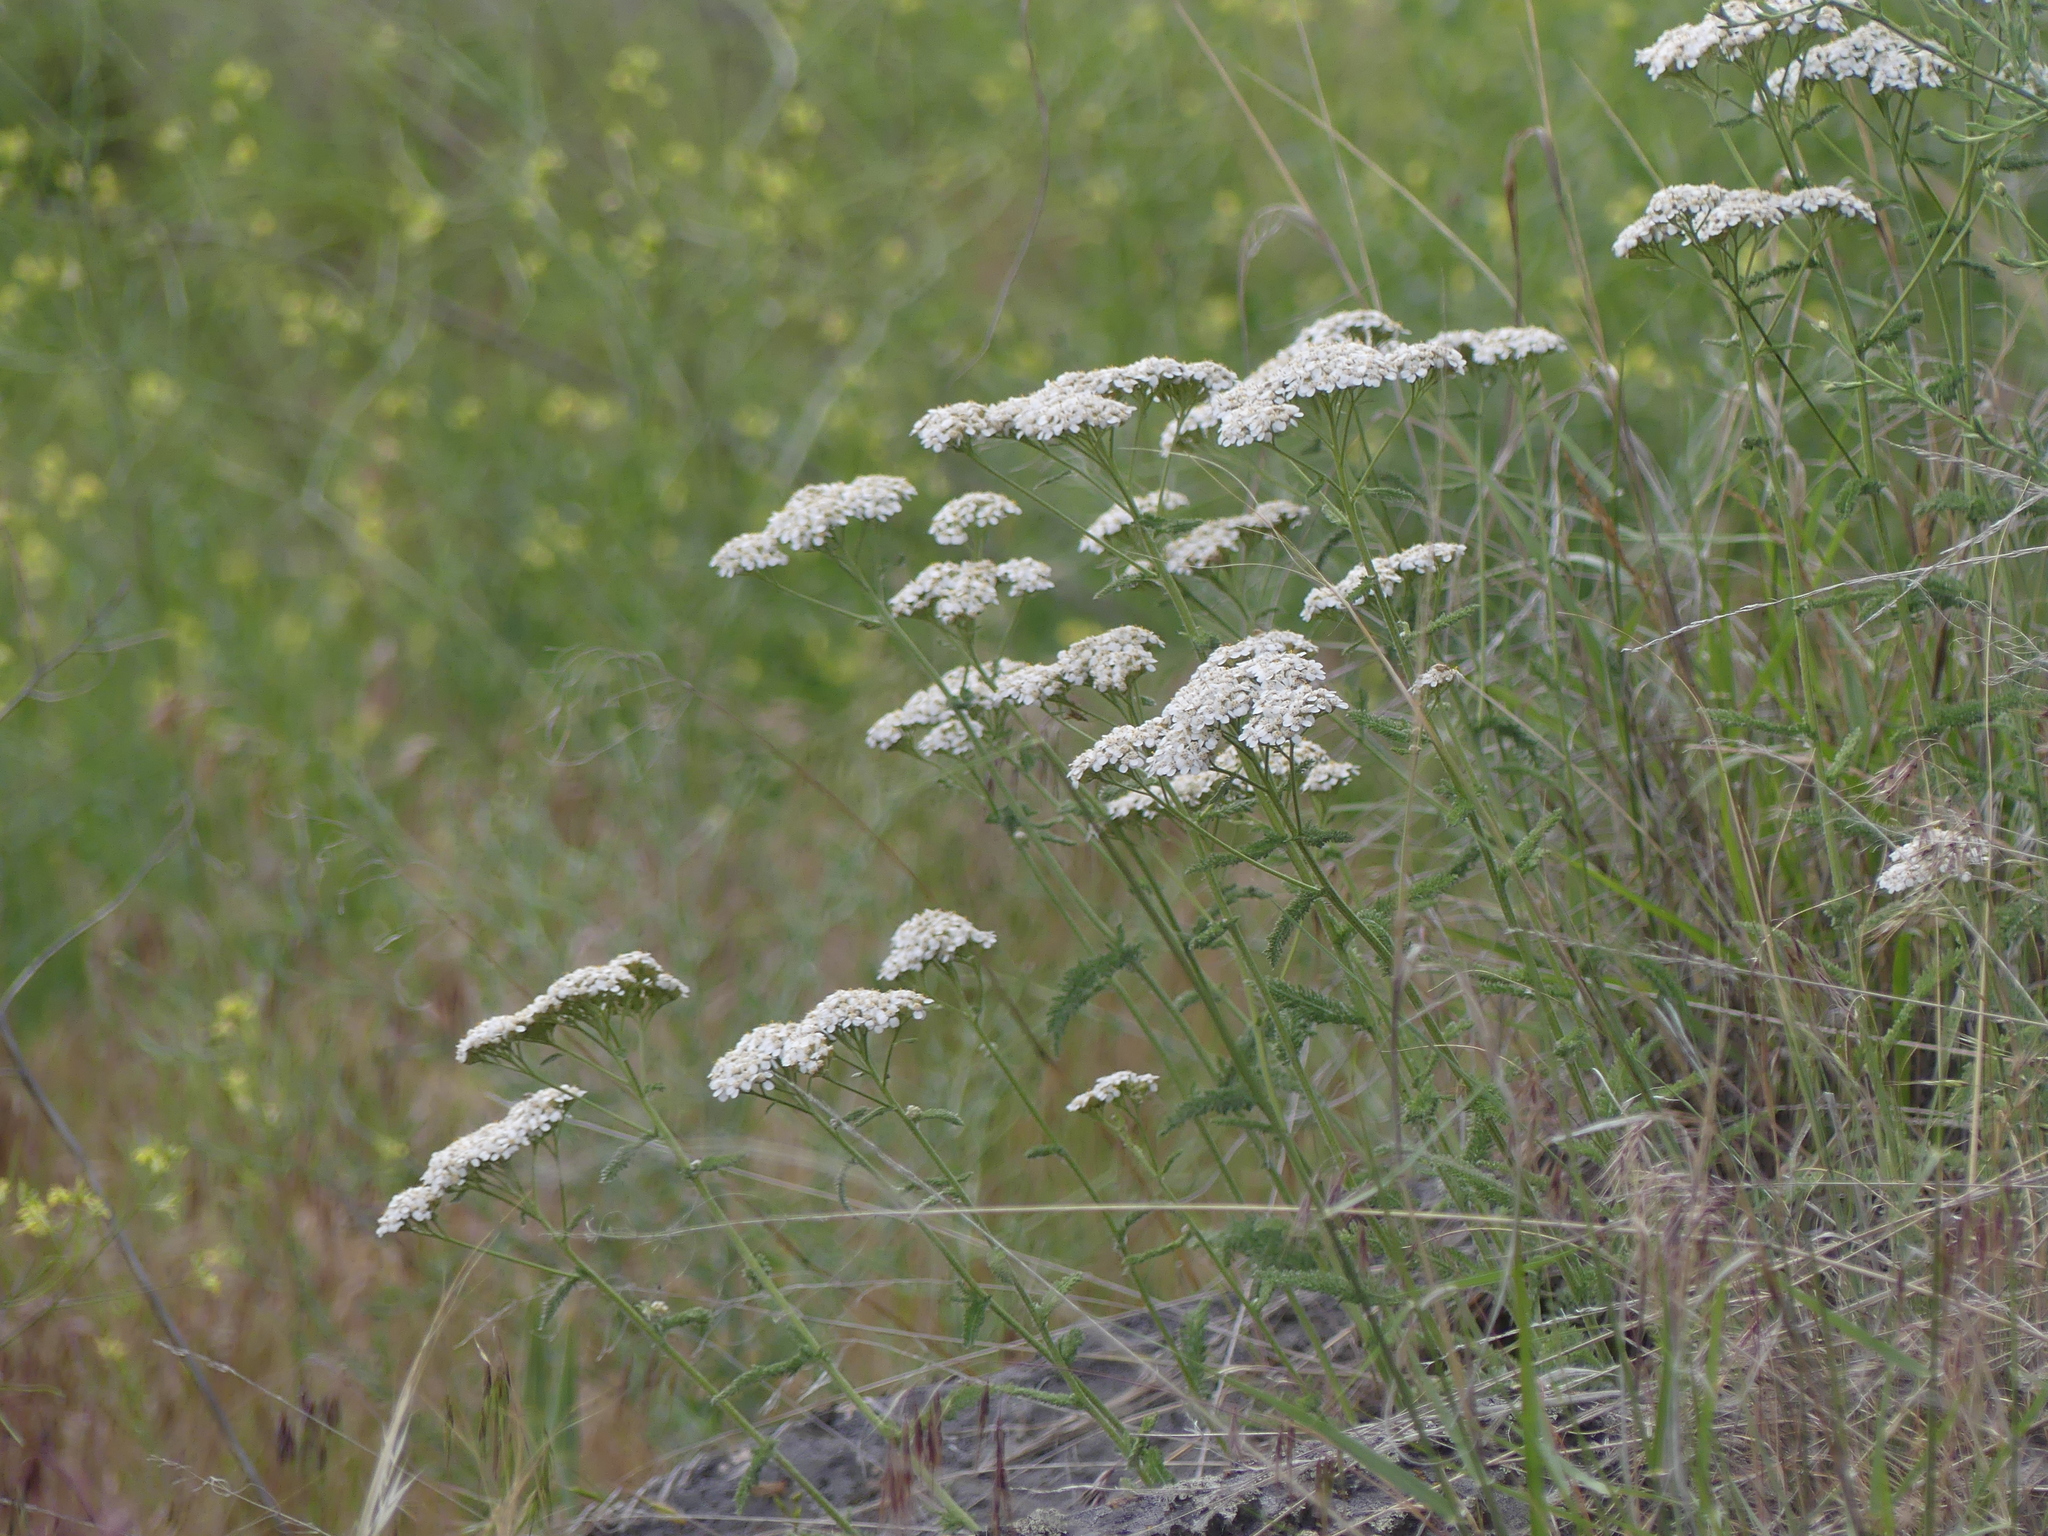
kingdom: Plantae
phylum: Tracheophyta
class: Magnoliopsida
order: Asterales
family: Asteraceae
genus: Achillea
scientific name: Achillea millefolium
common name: Yarrow
